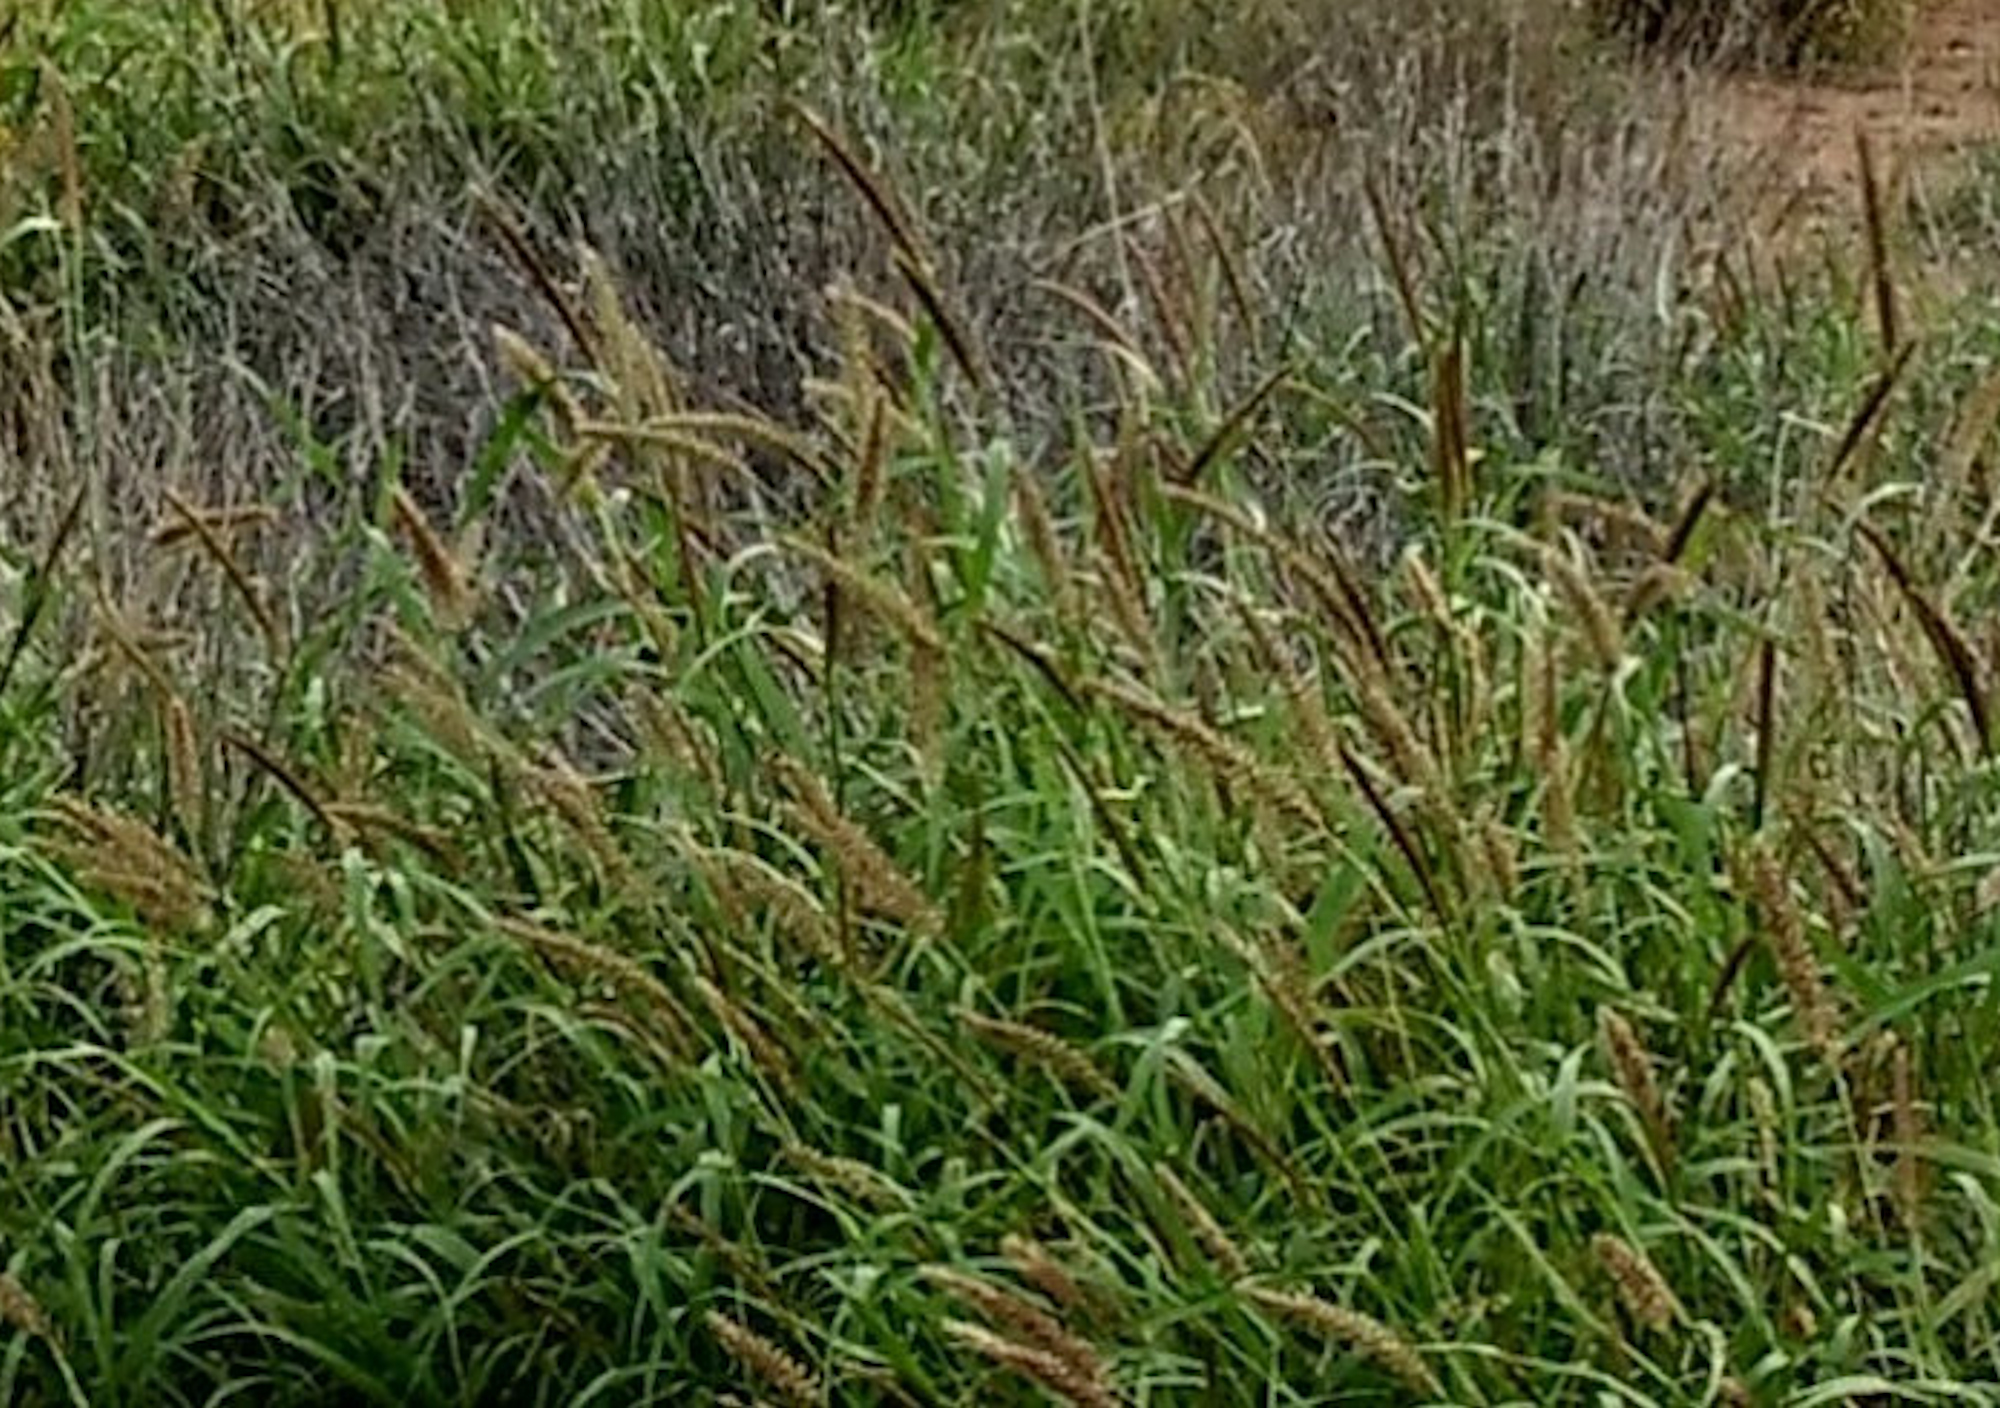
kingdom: Plantae
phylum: Tracheophyta
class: Liliopsida
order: Poales
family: Poaceae
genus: Cenchrus
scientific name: Cenchrus ciliaris
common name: Buffelgrass
